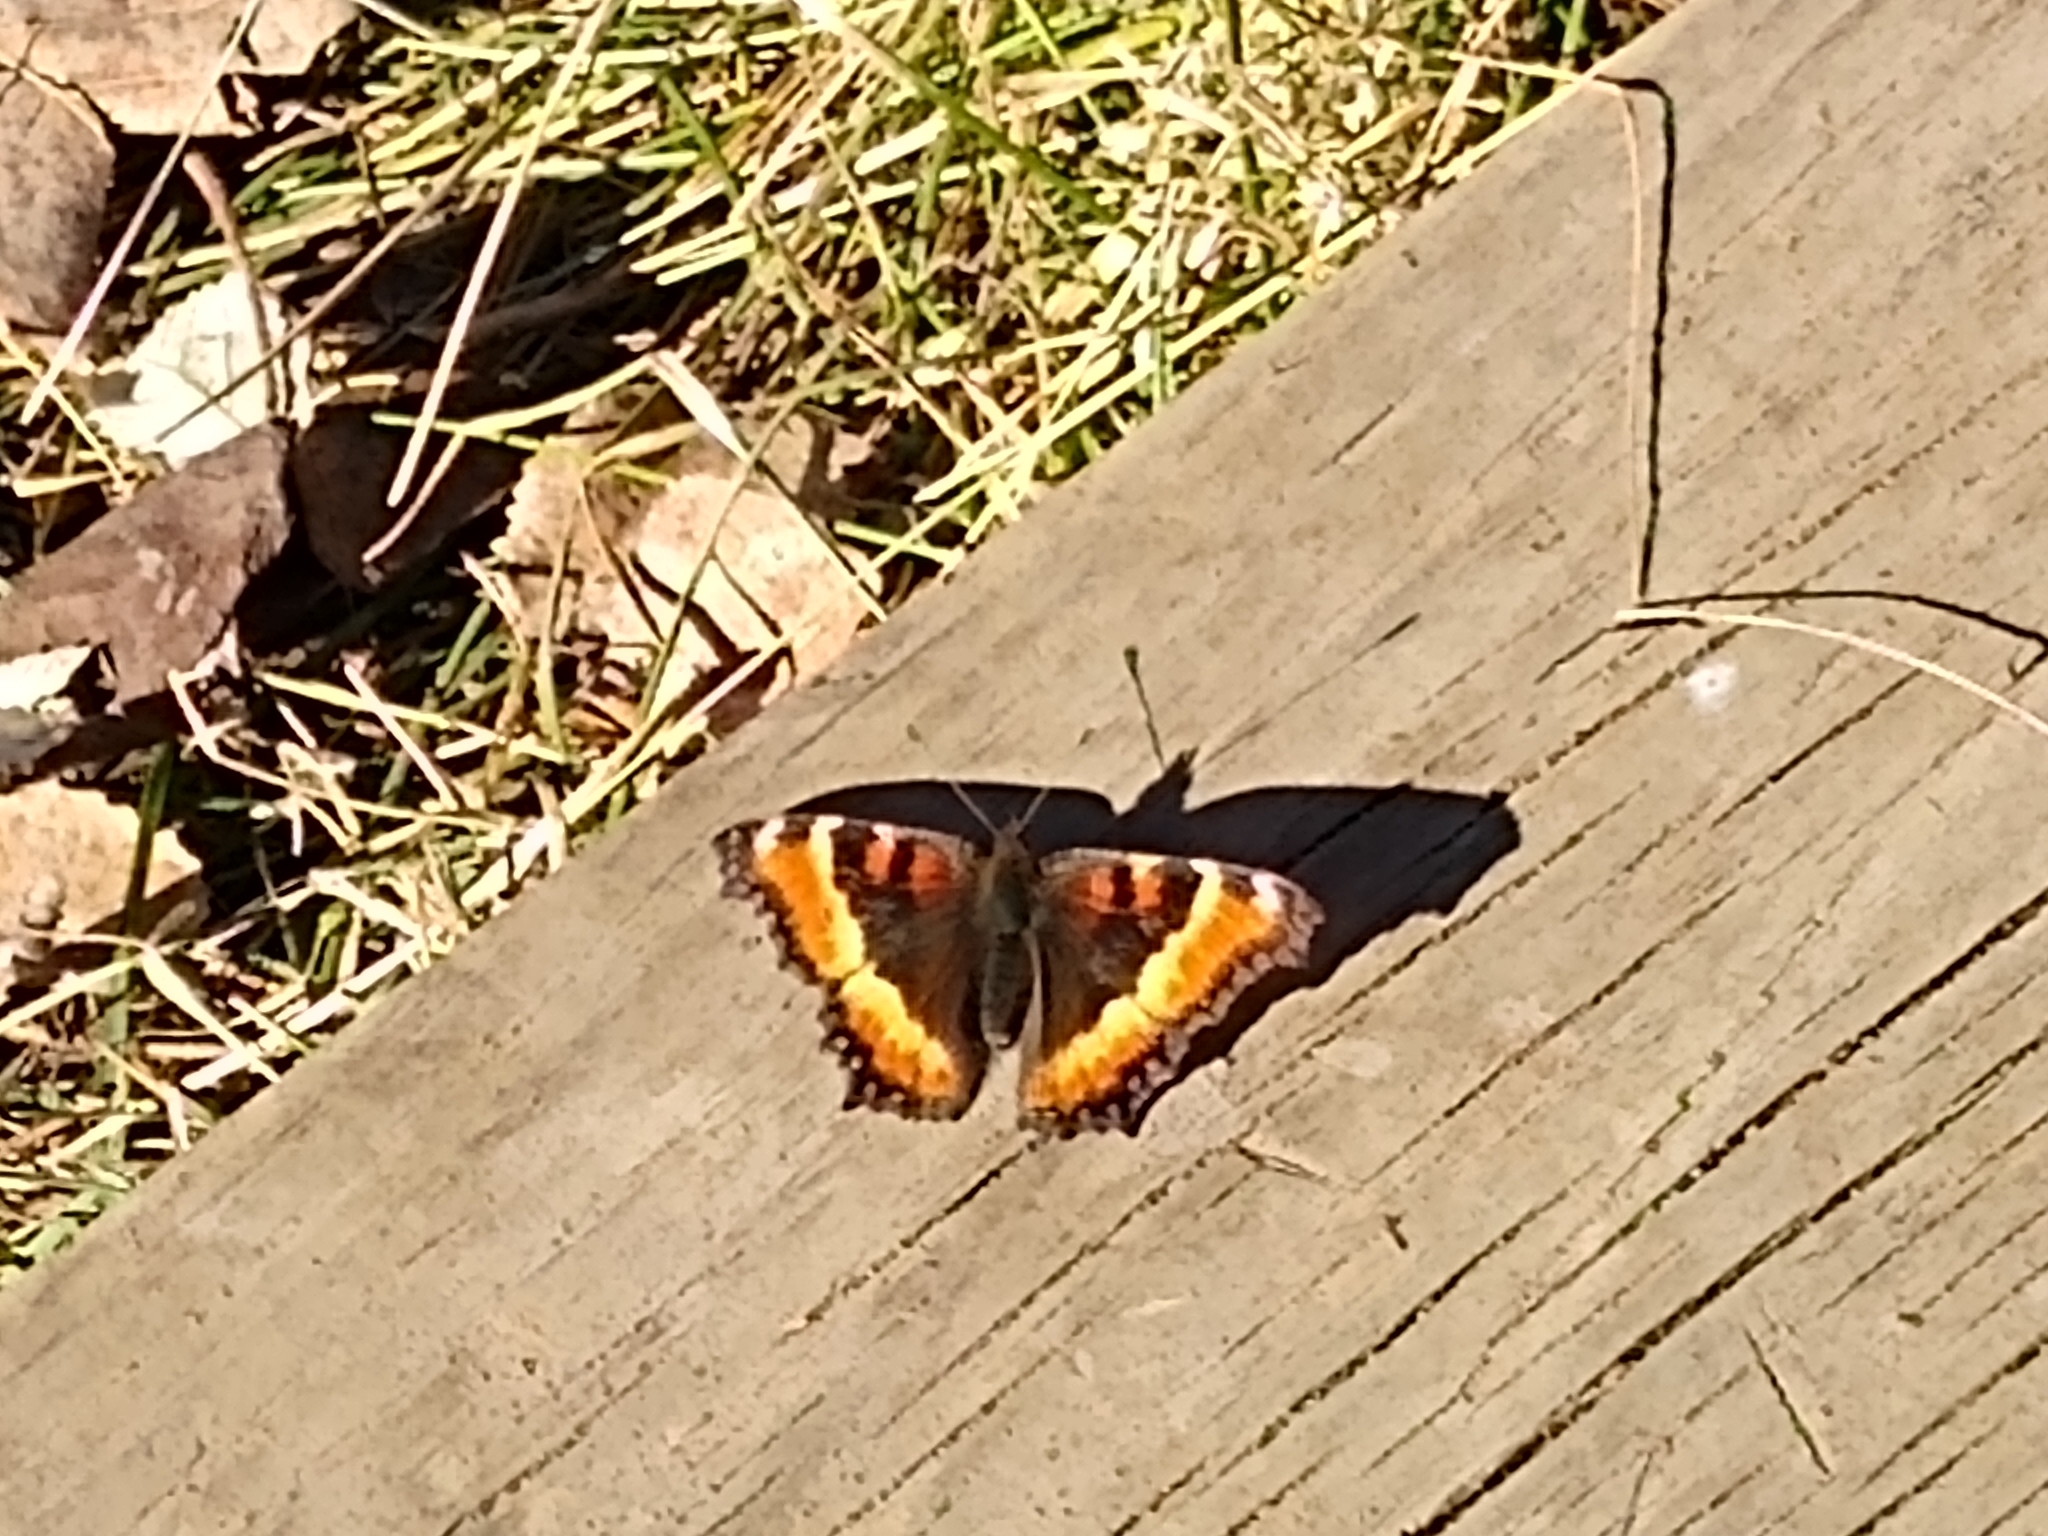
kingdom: Animalia
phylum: Arthropoda
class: Insecta
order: Lepidoptera
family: Nymphalidae
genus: Aglais
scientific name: Aglais milberti
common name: Milbert's tortoiseshell
